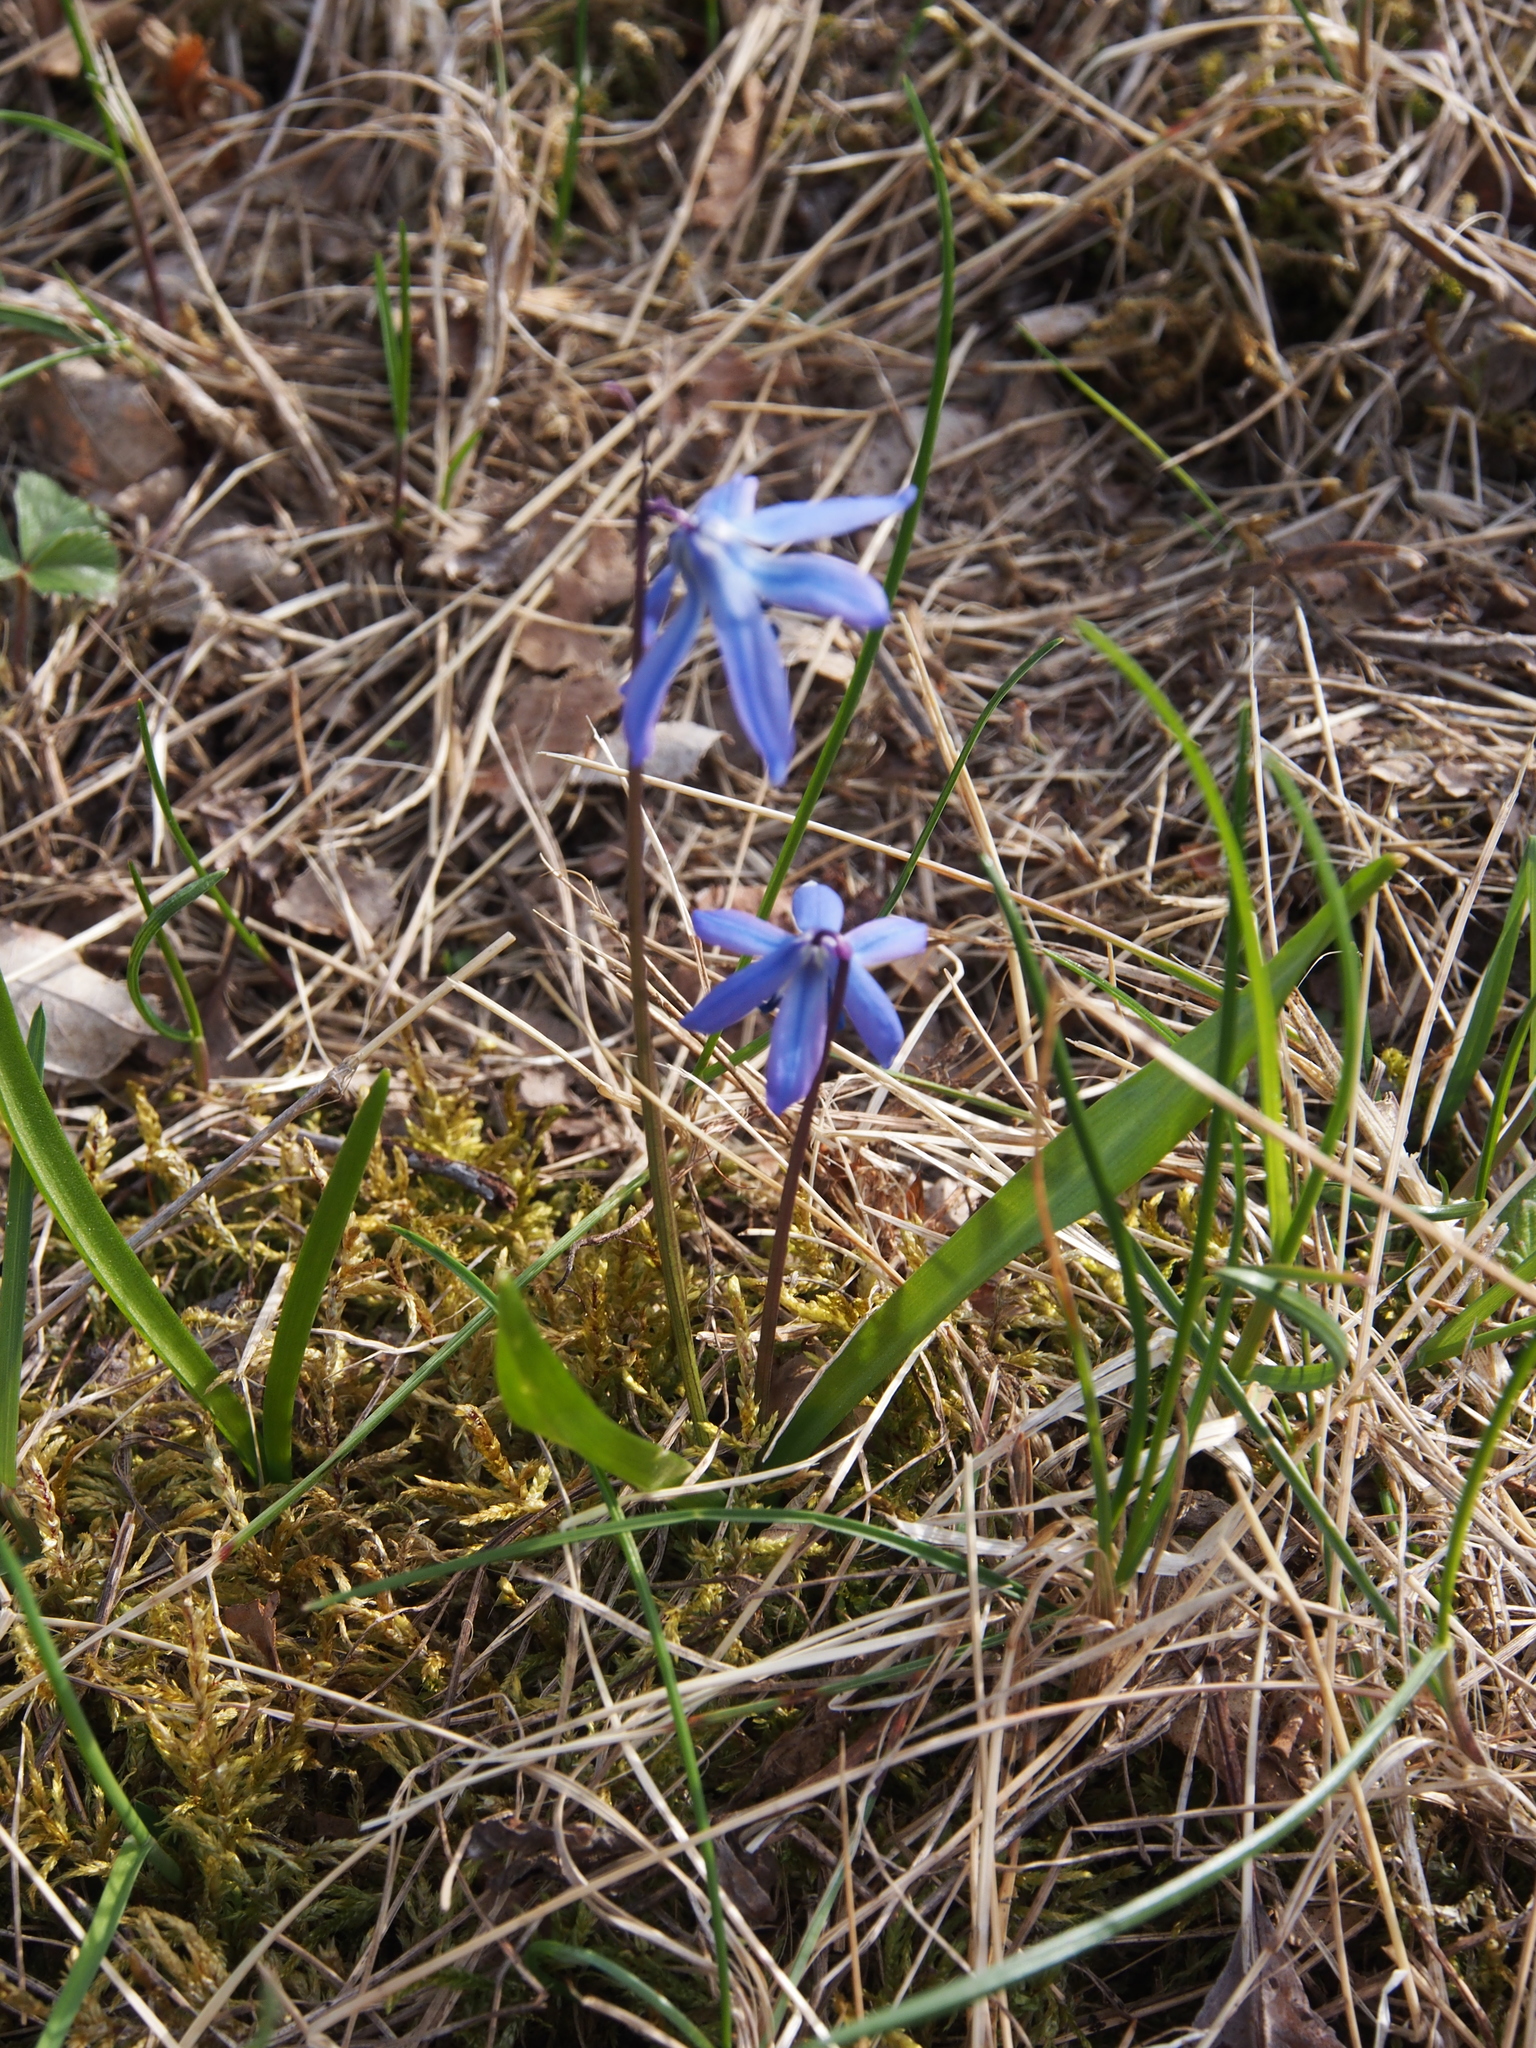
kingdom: Plantae
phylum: Tracheophyta
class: Liliopsida
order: Asparagales
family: Asparagaceae
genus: Scilla
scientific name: Scilla siberica
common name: Siberian squill
